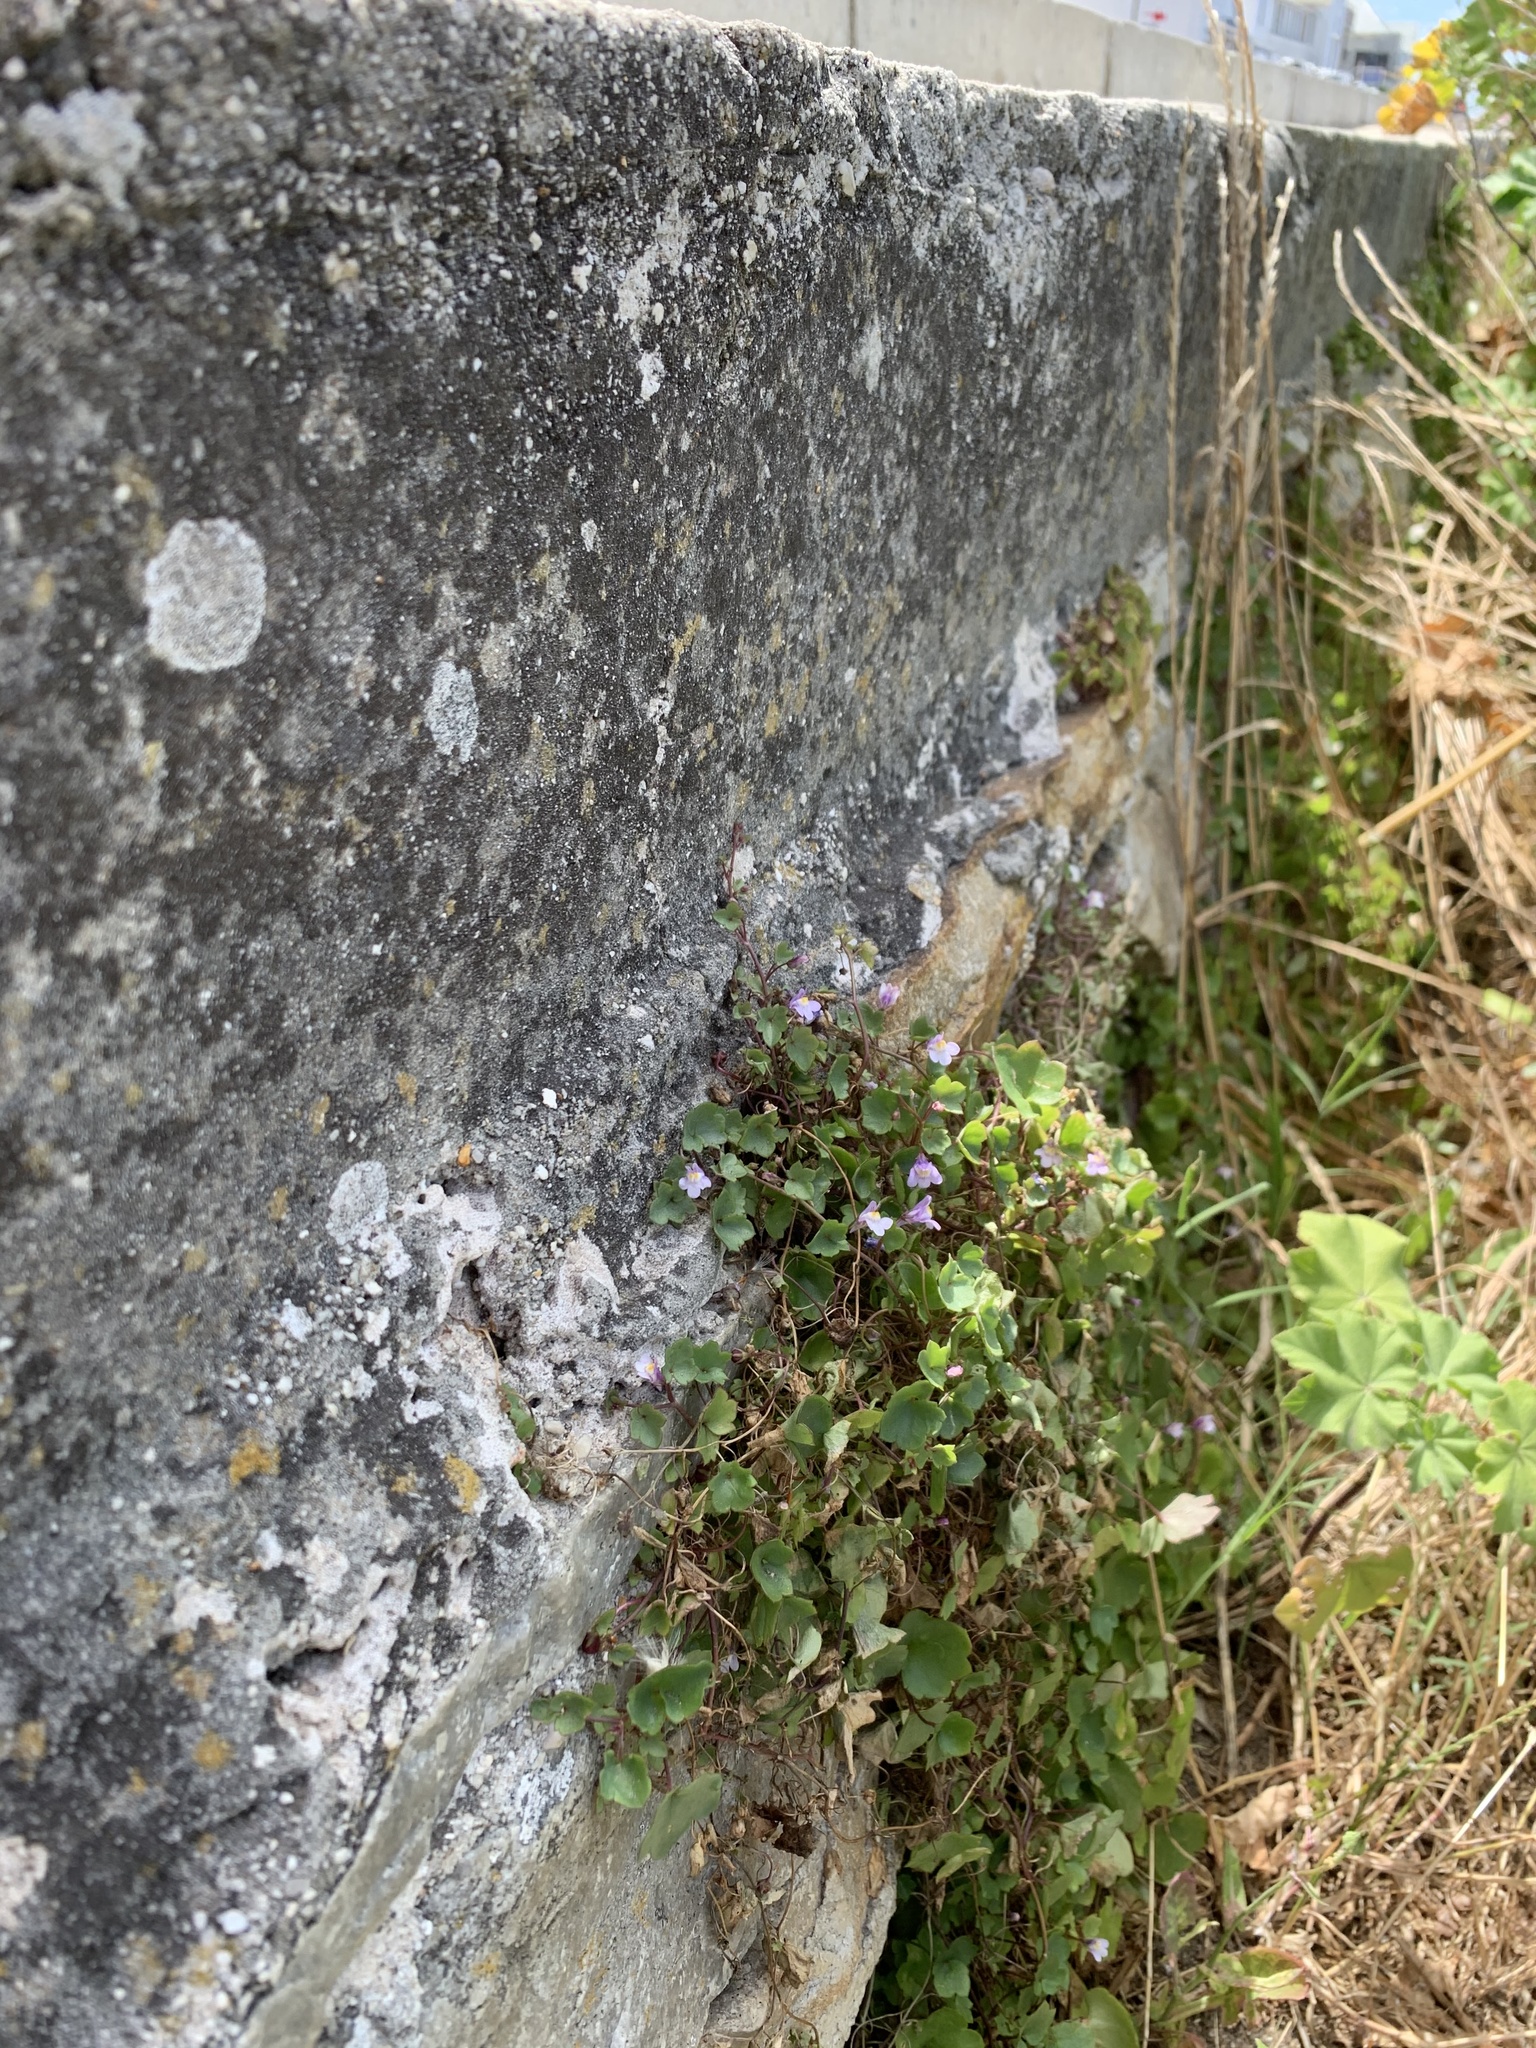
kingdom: Plantae
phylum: Tracheophyta
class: Magnoliopsida
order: Lamiales
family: Plantaginaceae
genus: Cymbalaria
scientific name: Cymbalaria muralis
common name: Ivy-leaved toadflax
